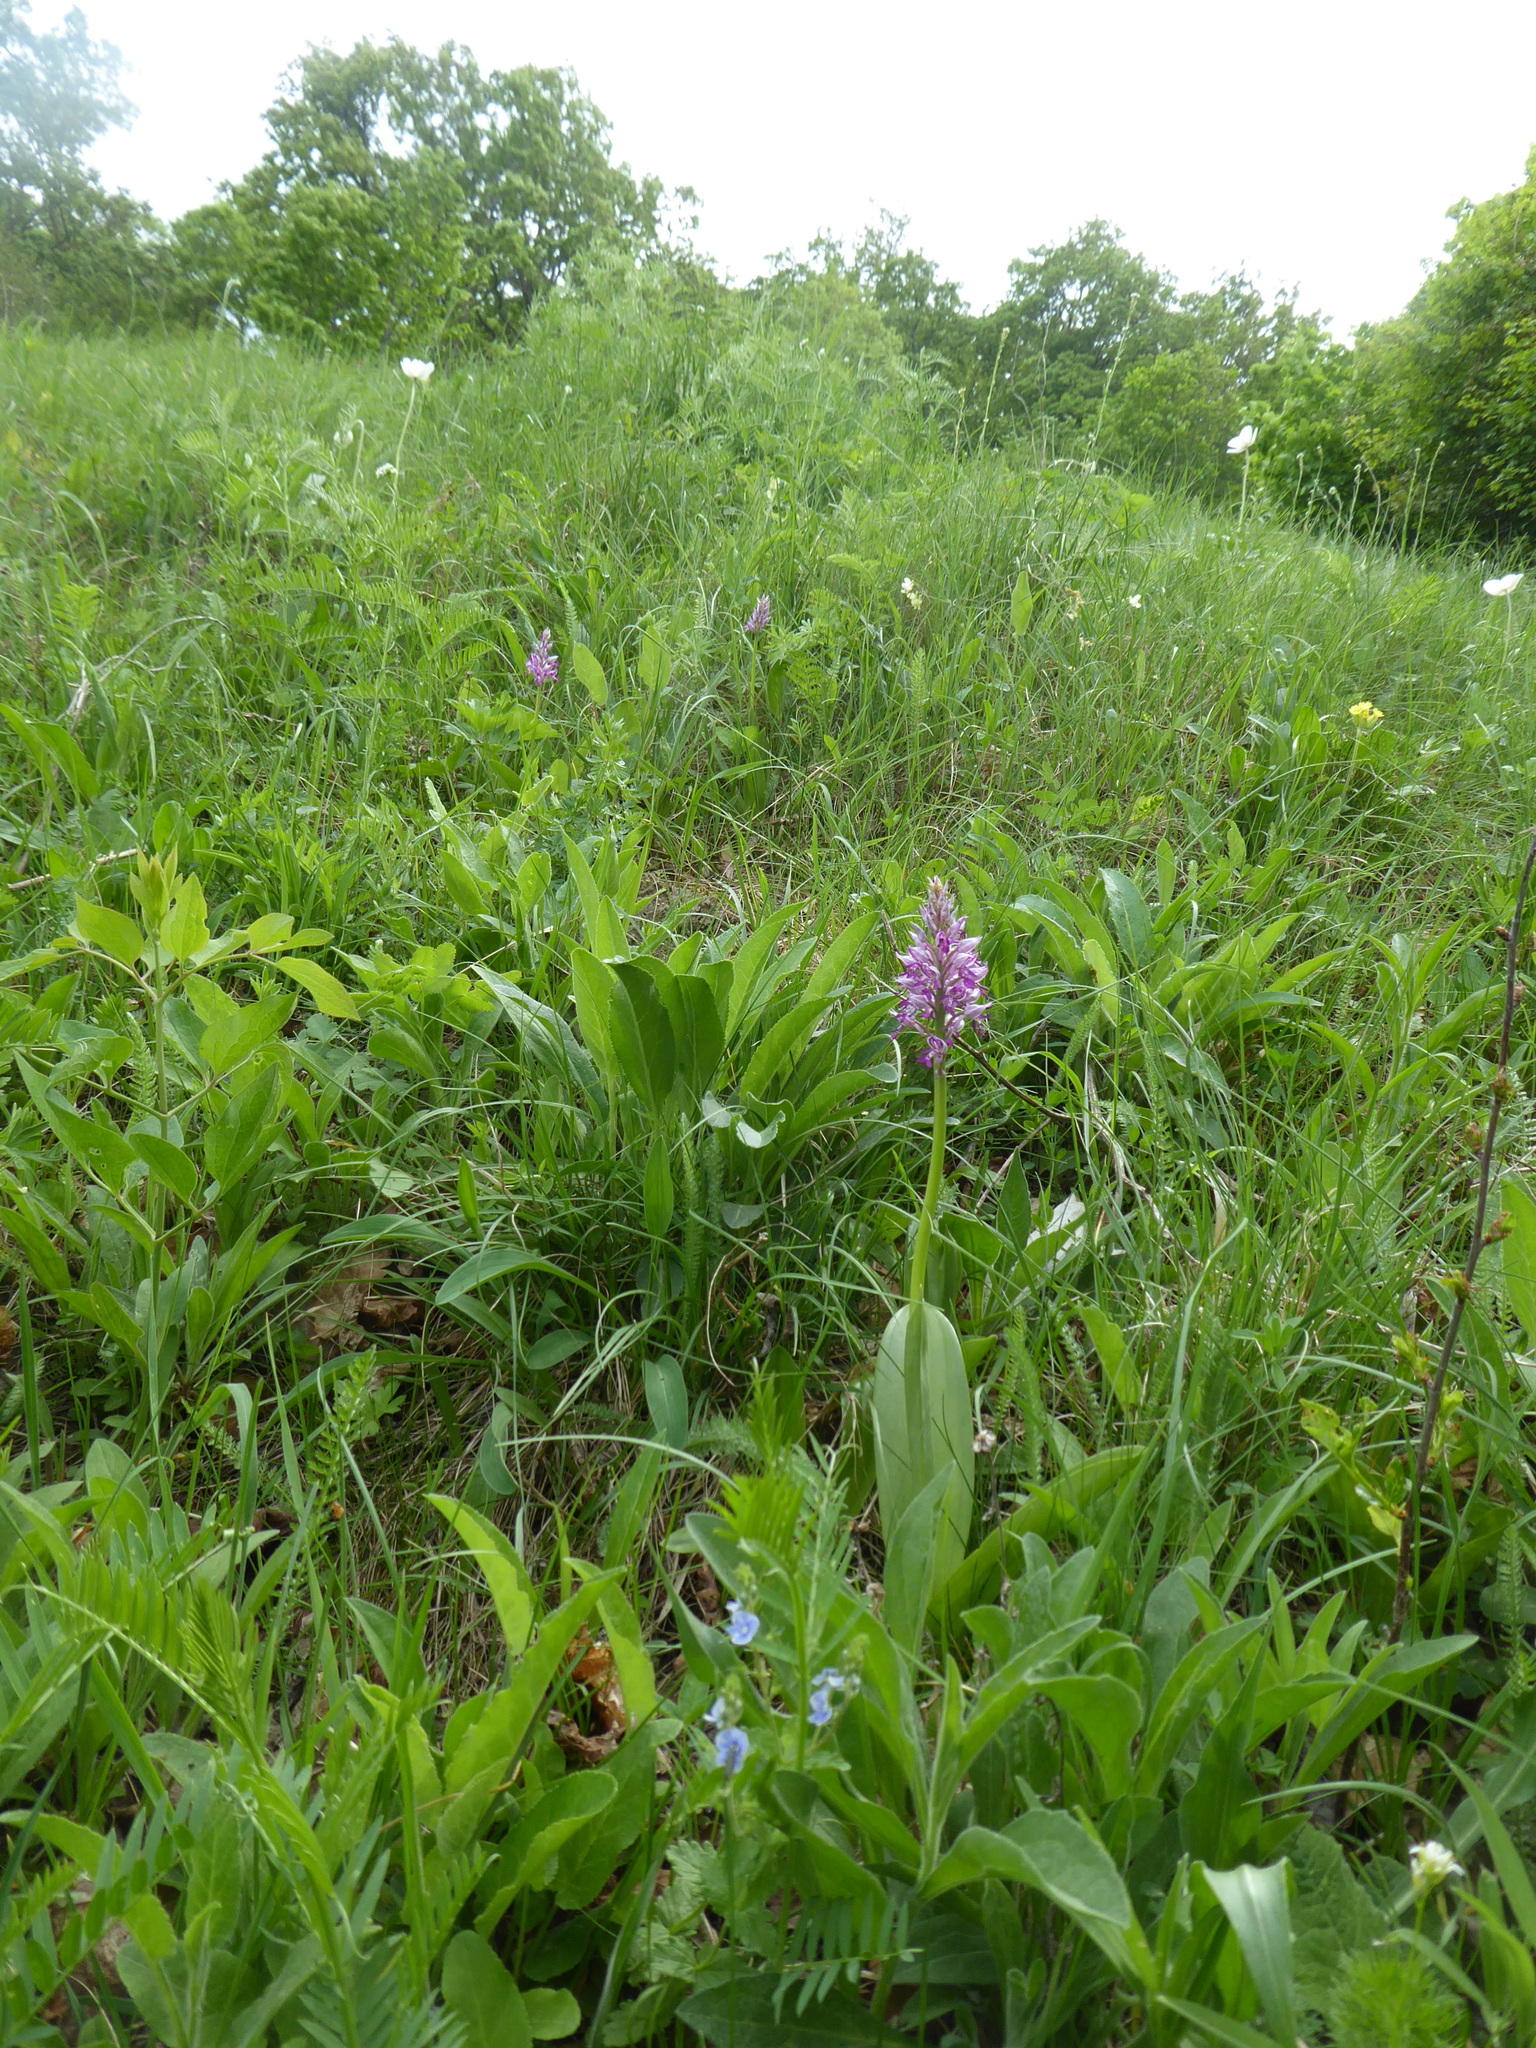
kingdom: Plantae
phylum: Tracheophyta
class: Liliopsida
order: Asparagales
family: Orchidaceae
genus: Orchis
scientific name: Orchis militaris
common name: Military orchid
